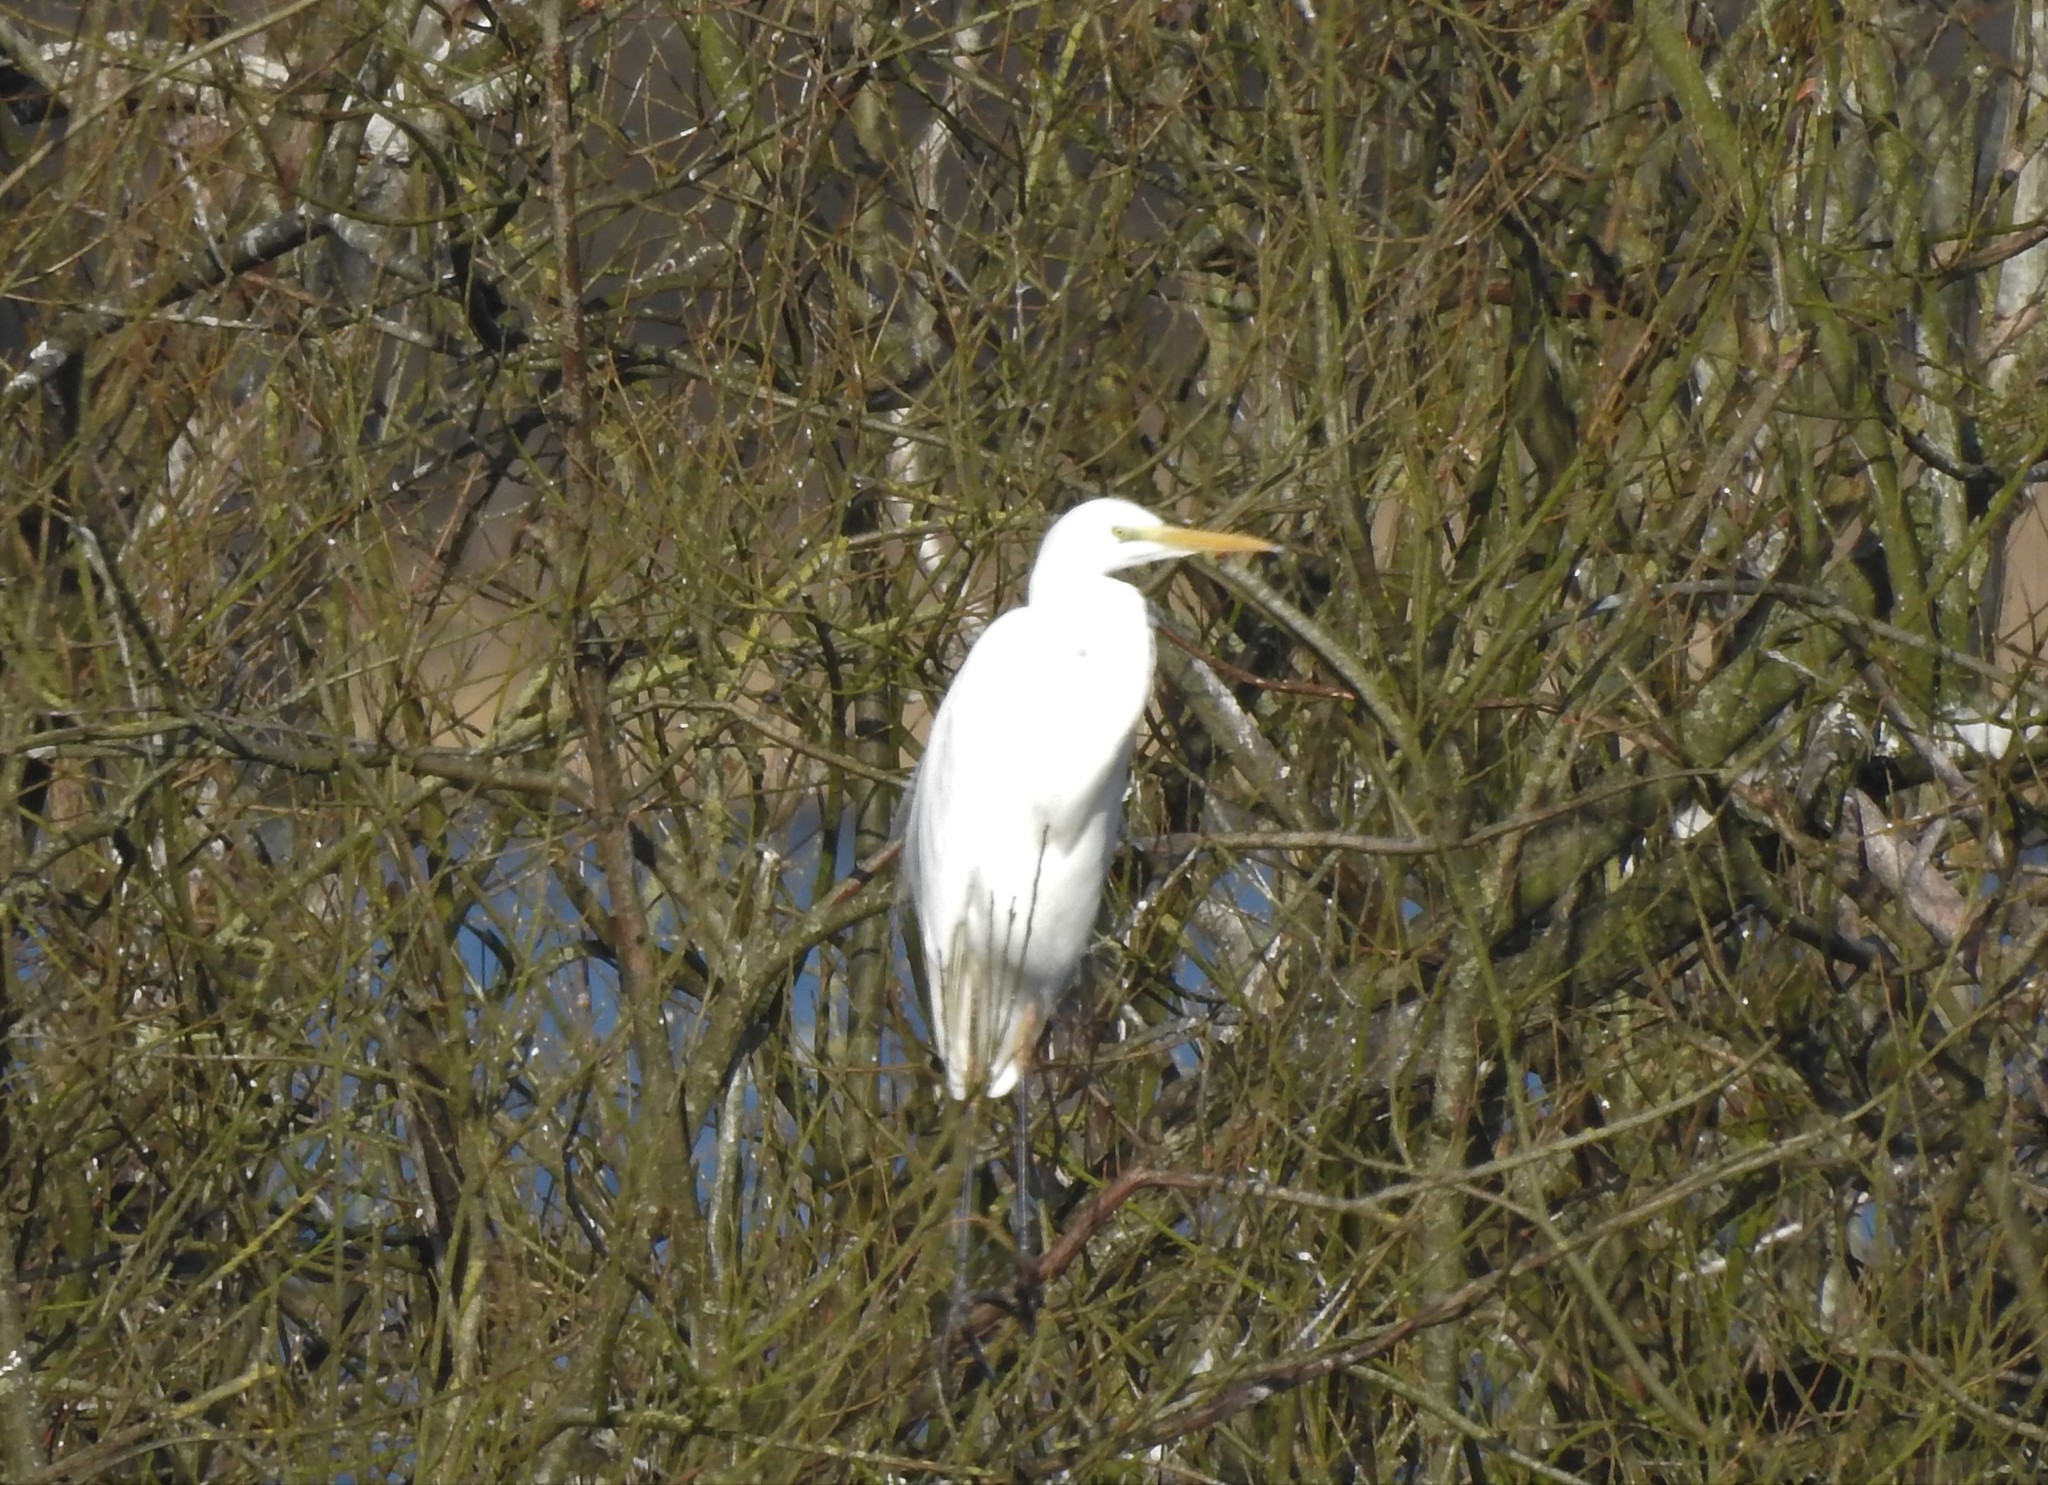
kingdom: Animalia
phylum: Chordata
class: Aves
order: Pelecaniformes
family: Ardeidae
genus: Ardea
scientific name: Ardea alba
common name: Great egret
